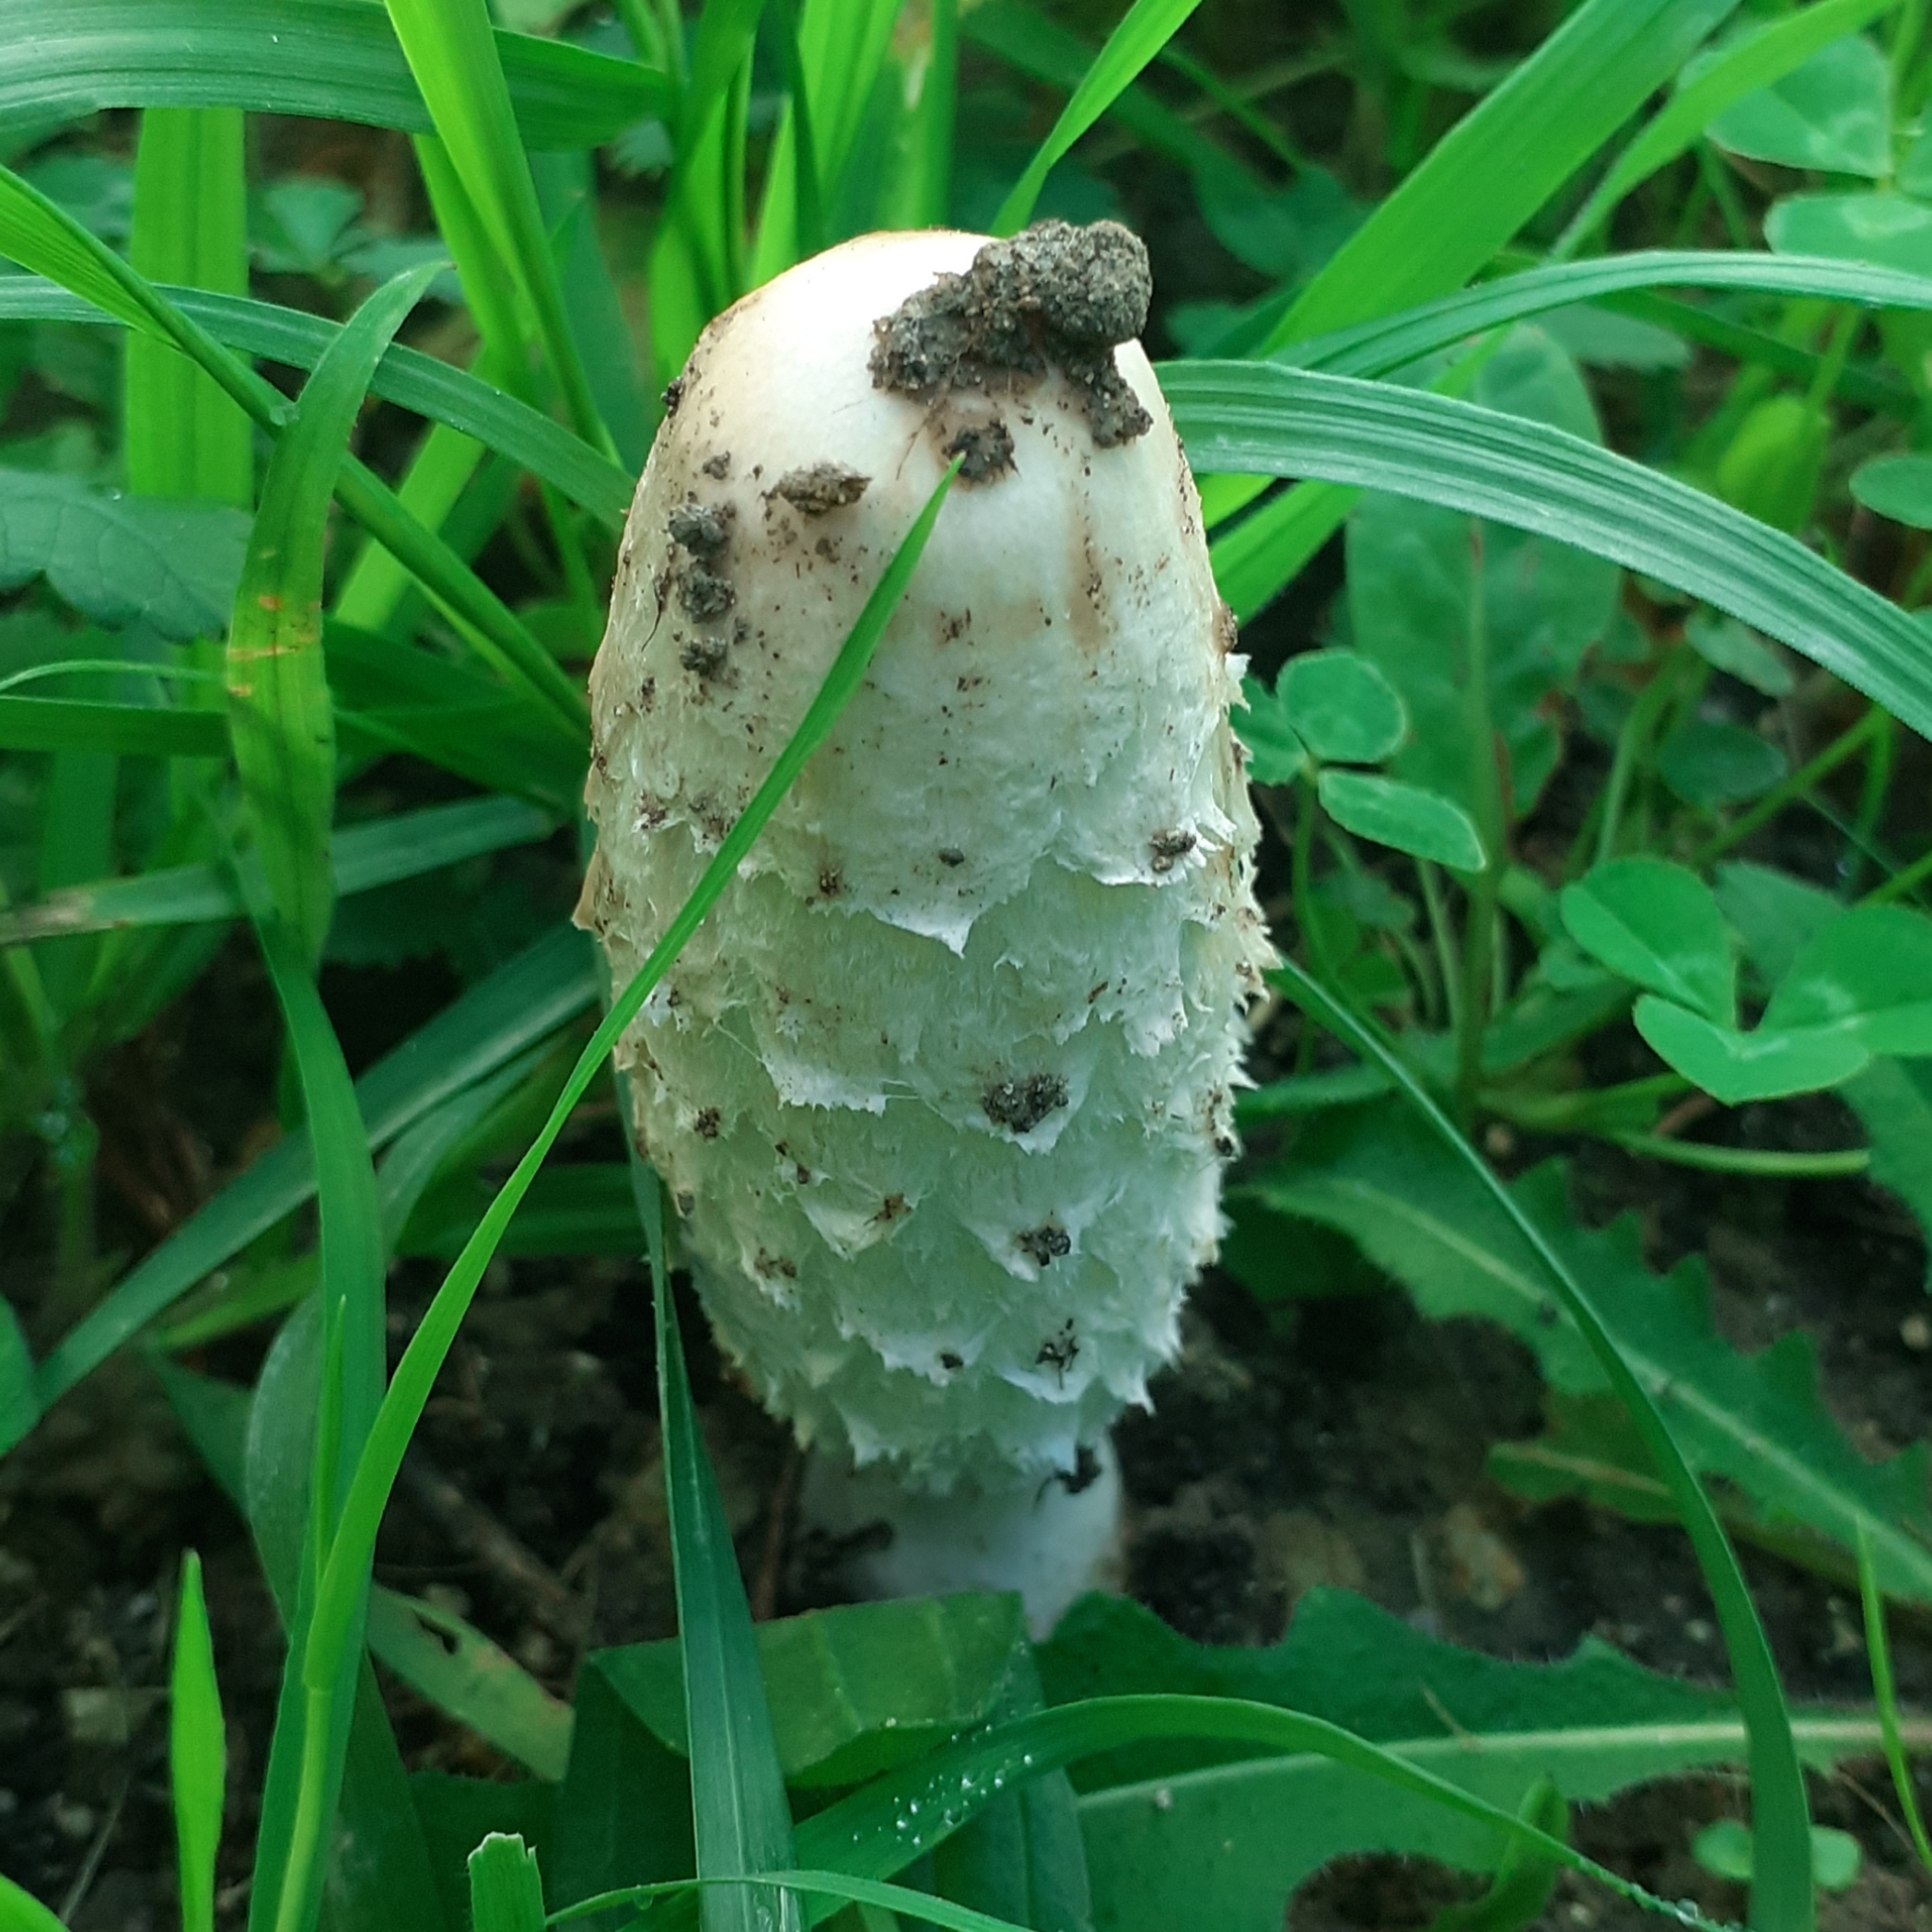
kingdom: Fungi
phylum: Basidiomycota
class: Agaricomycetes
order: Agaricales
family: Agaricaceae
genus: Coprinus
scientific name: Coprinus comatus
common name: Lawyer's wig
